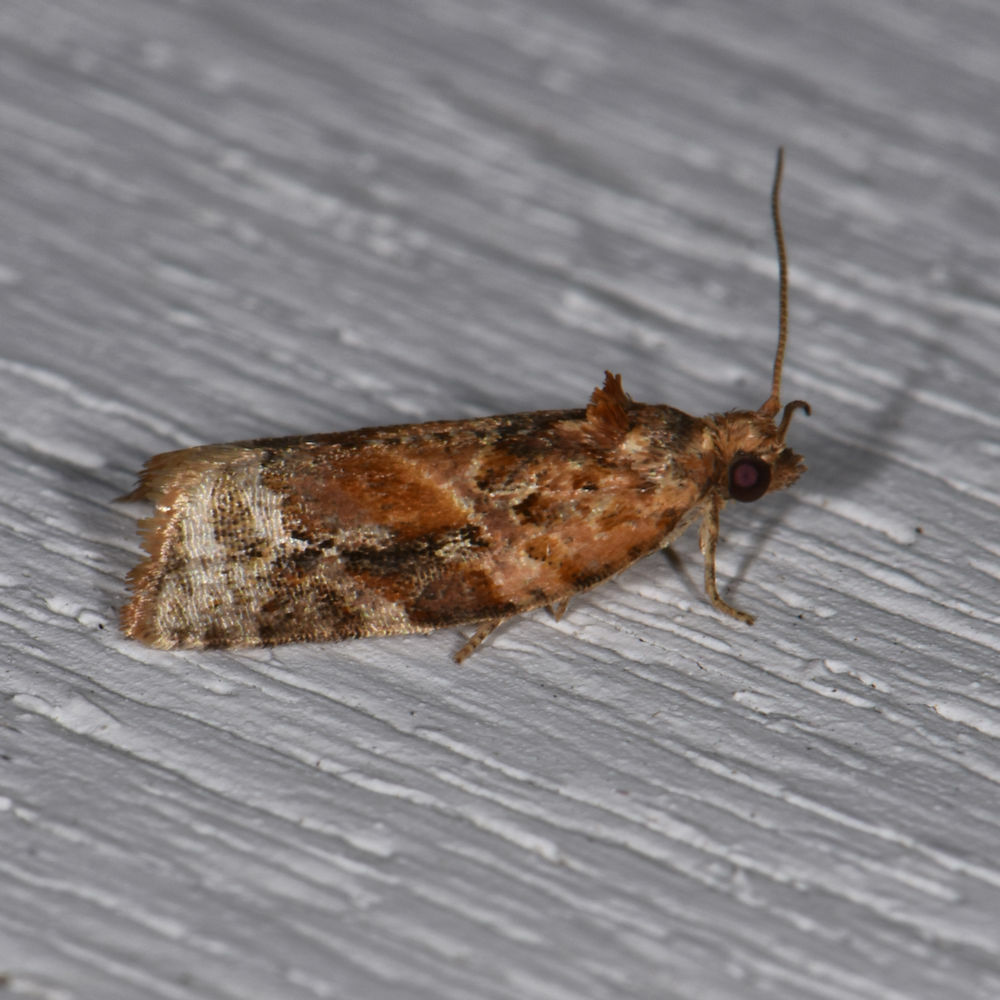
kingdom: Animalia
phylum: Arthropoda
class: Insecta
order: Lepidoptera
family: Tortricidae
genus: Argyrotaenia
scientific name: Argyrotaenia velutinana
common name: Red-banded leafroller moth
